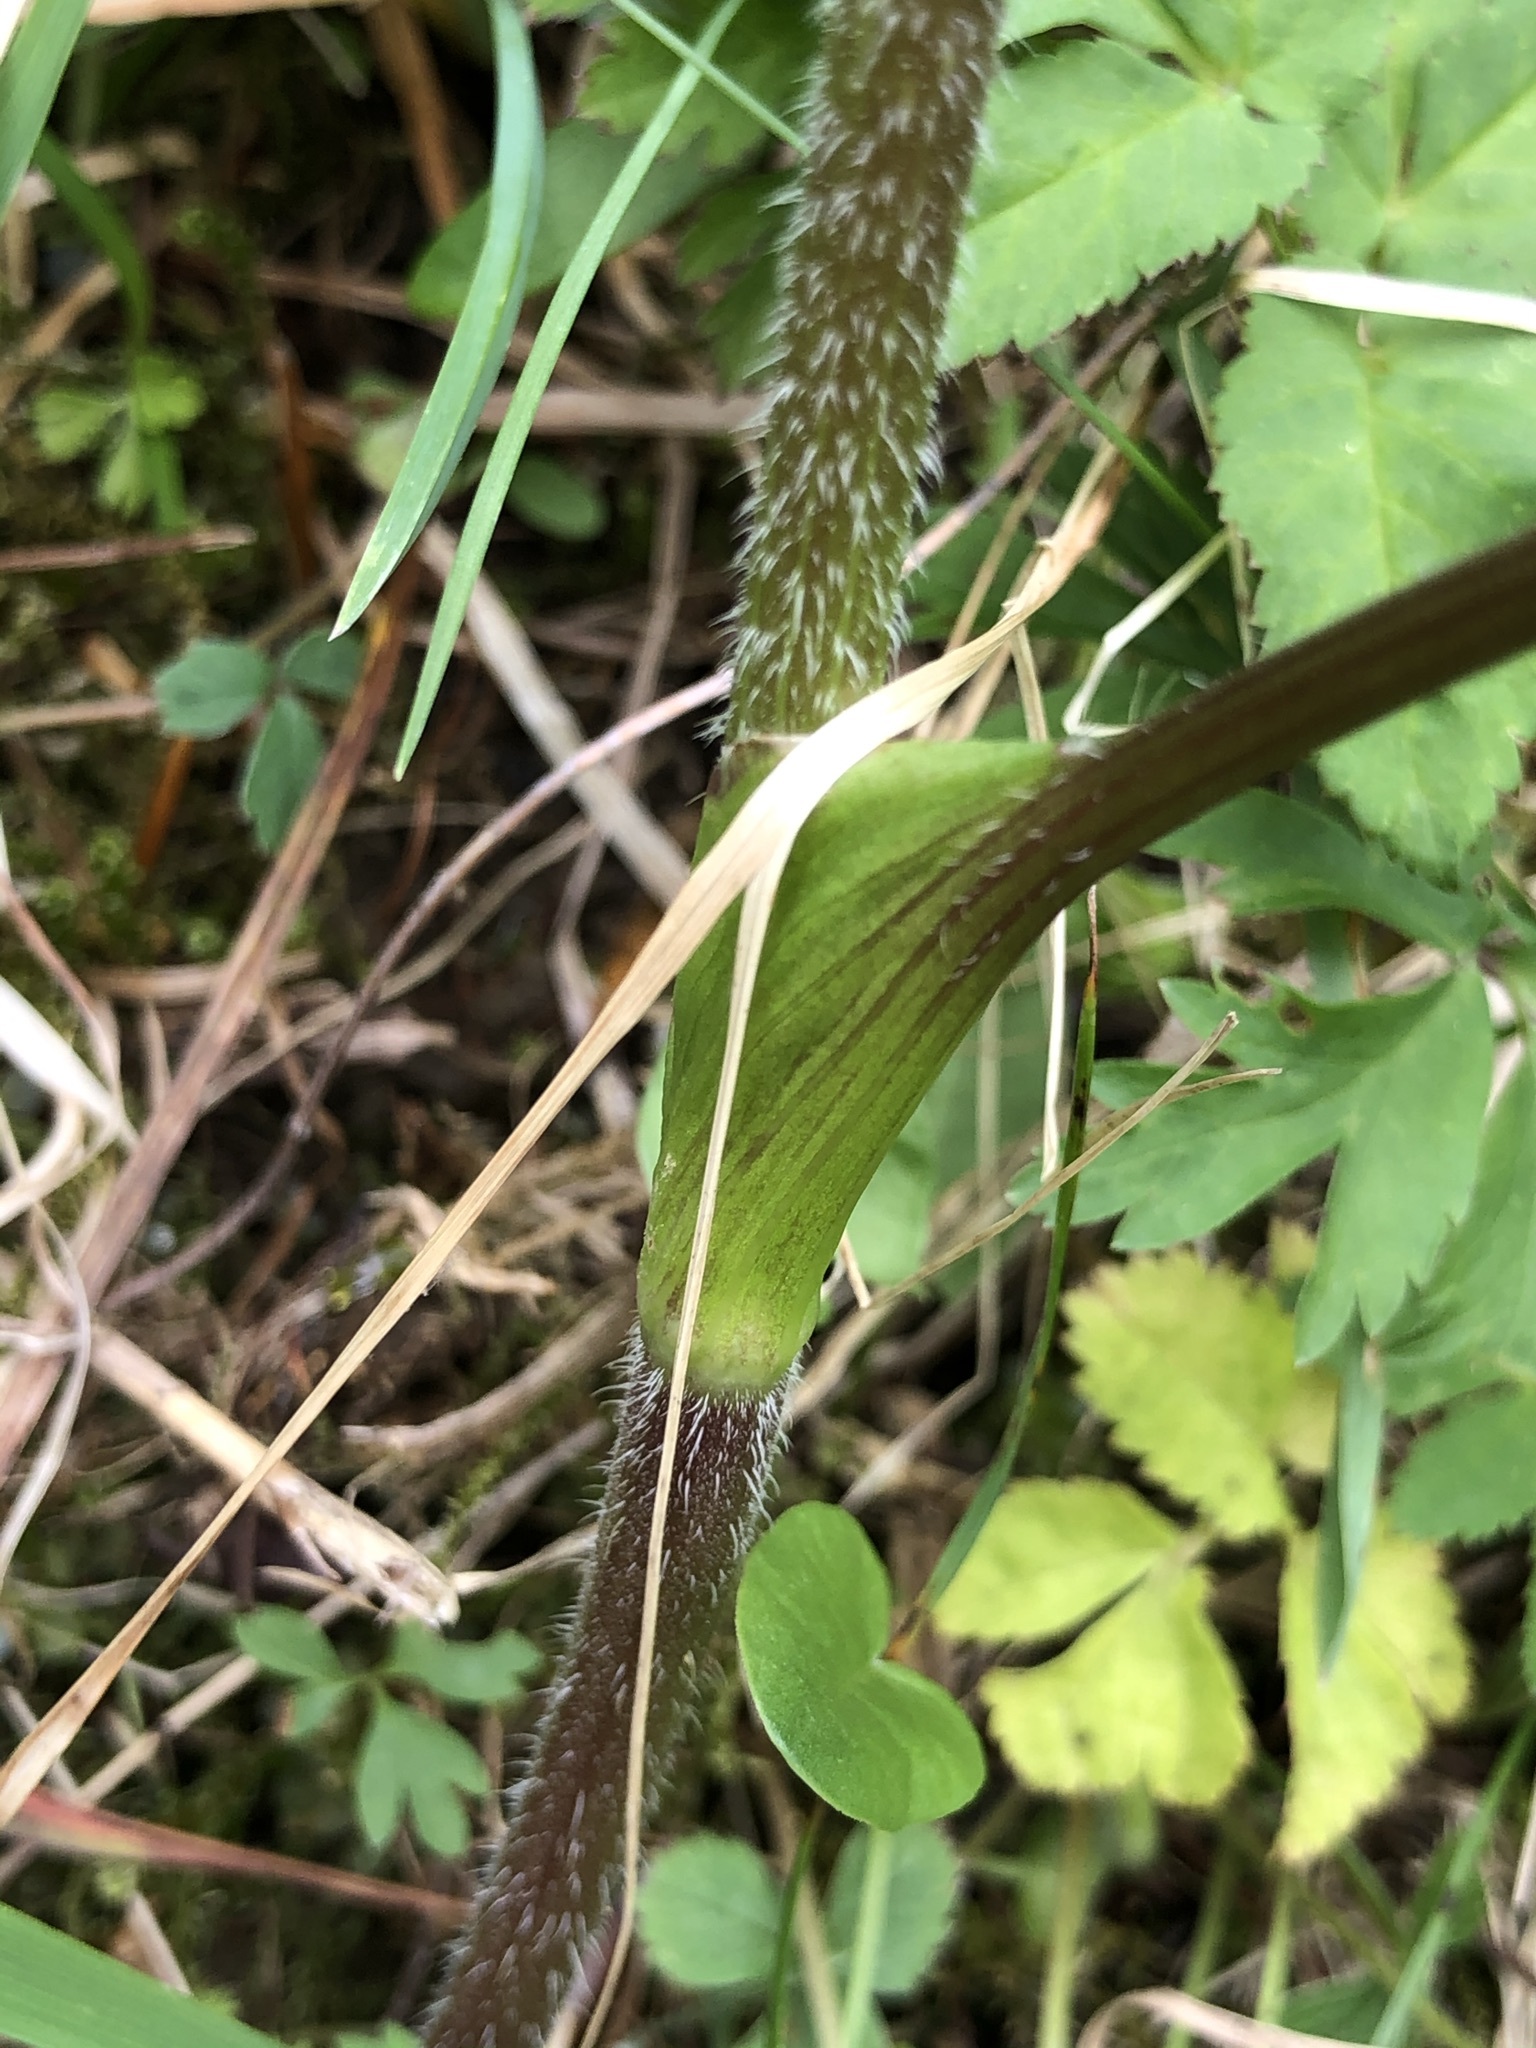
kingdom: Plantae
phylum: Tracheophyta
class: Magnoliopsida
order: Apiales
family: Apiaceae
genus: Chaerophyllum
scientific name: Chaerophyllum hirsutum
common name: Hairy chervil
